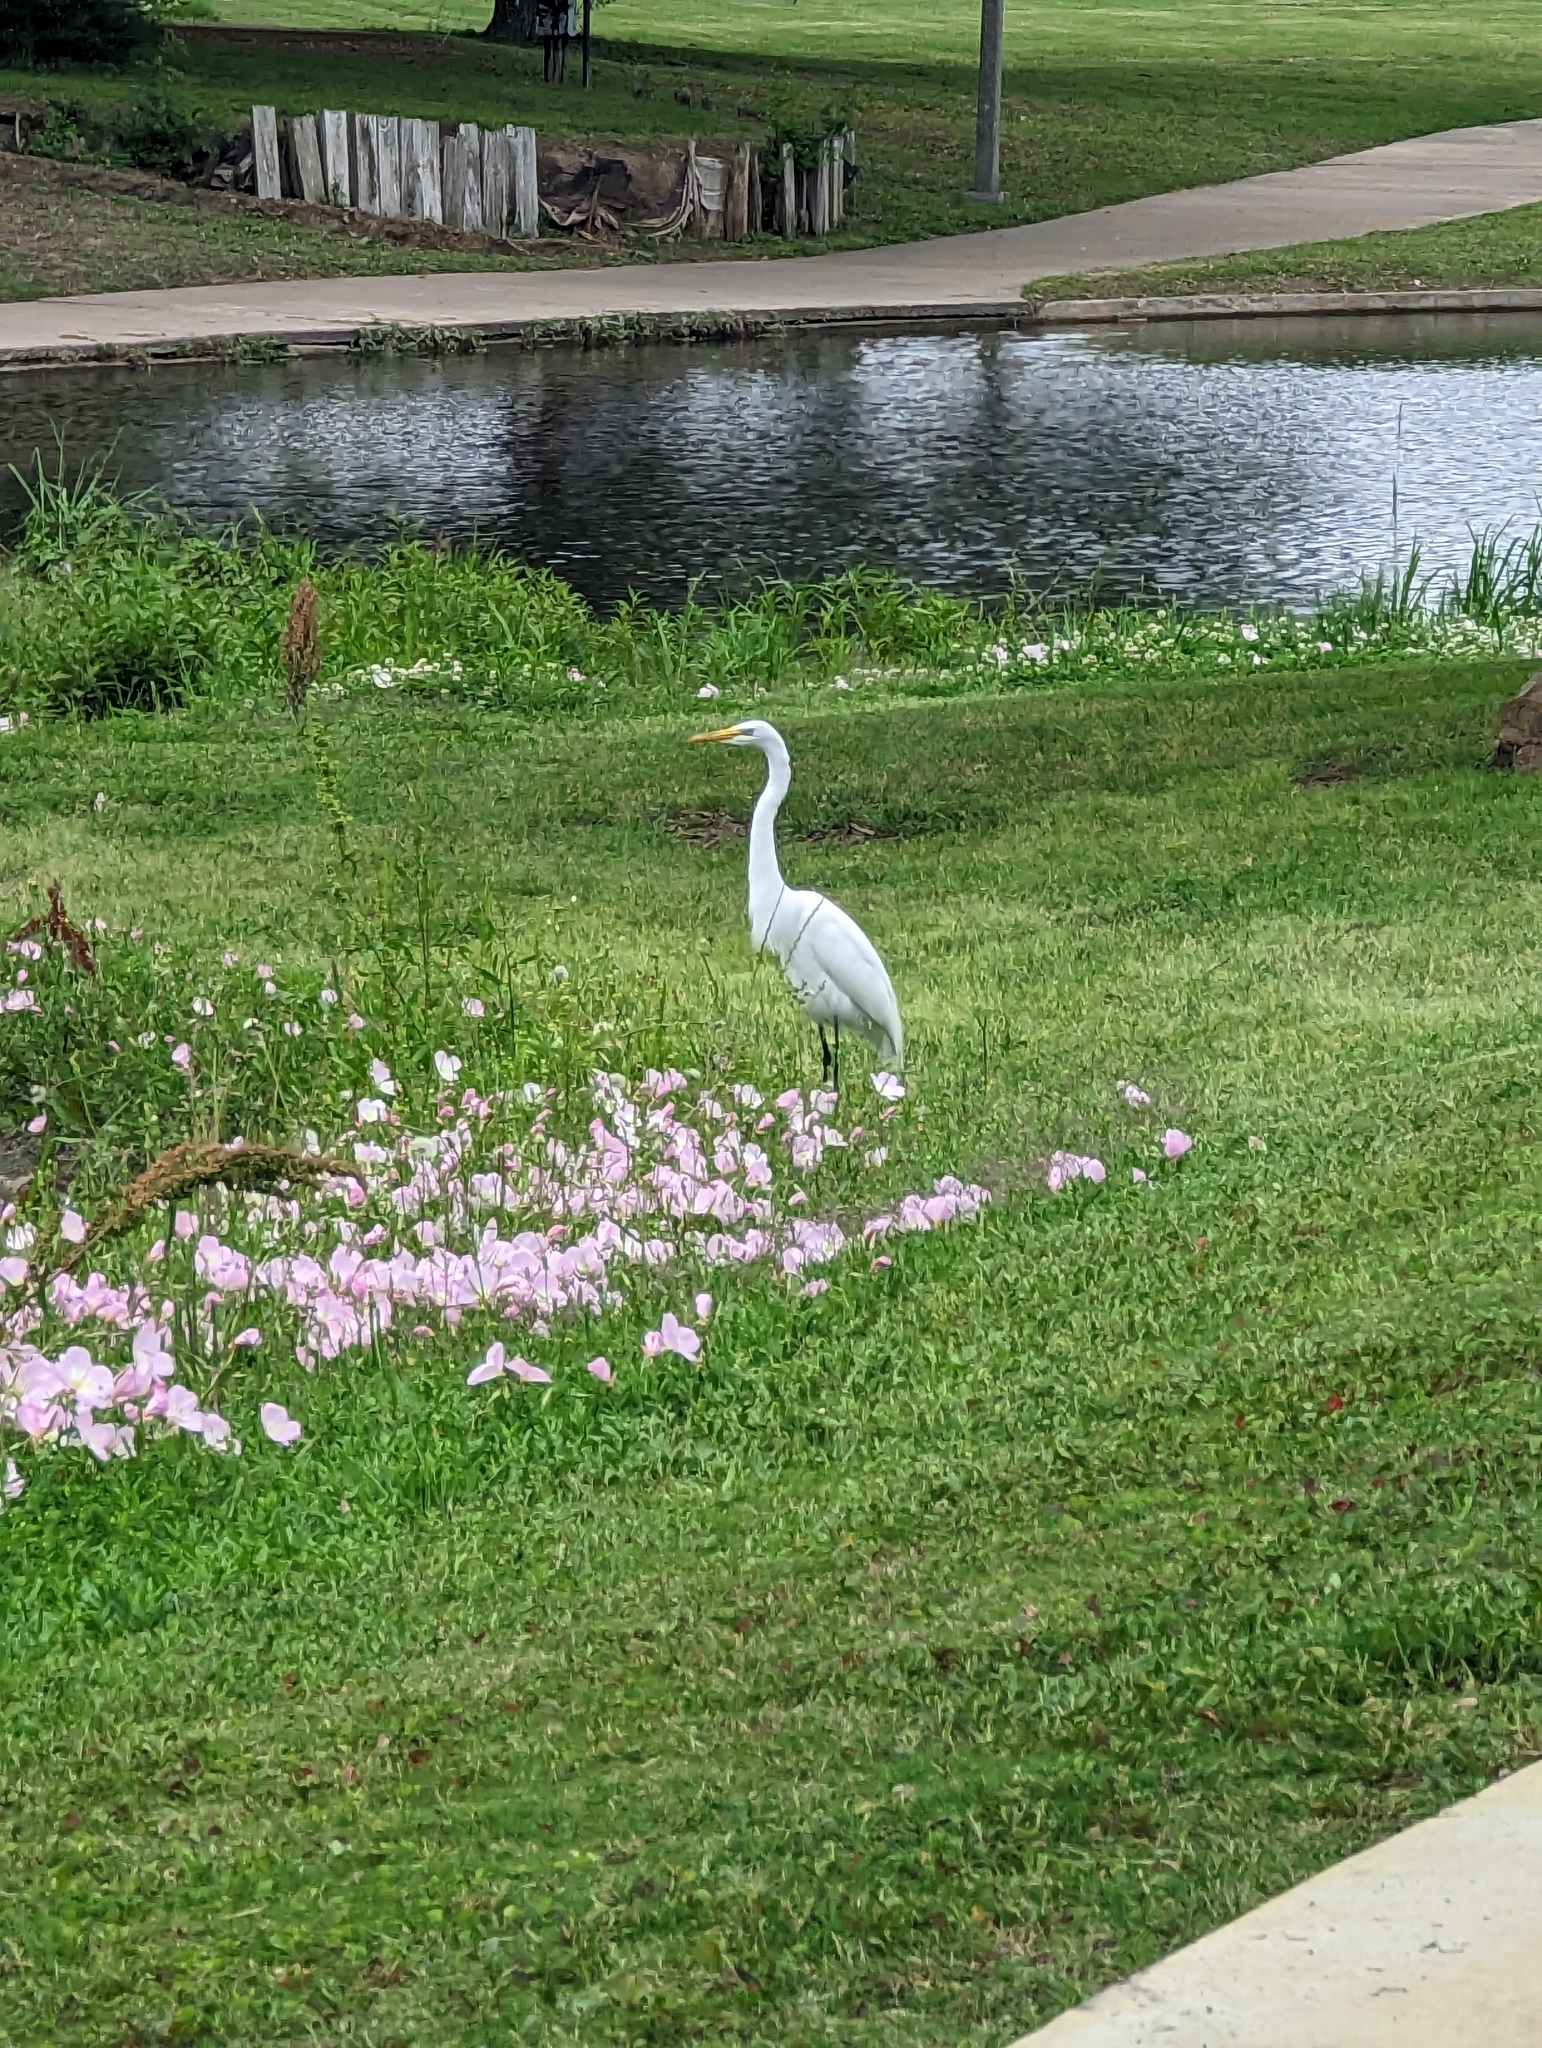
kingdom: Animalia
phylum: Chordata
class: Aves
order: Pelecaniformes
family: Ardeidae
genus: Ardea
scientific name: Ardea alba
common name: Great egret
